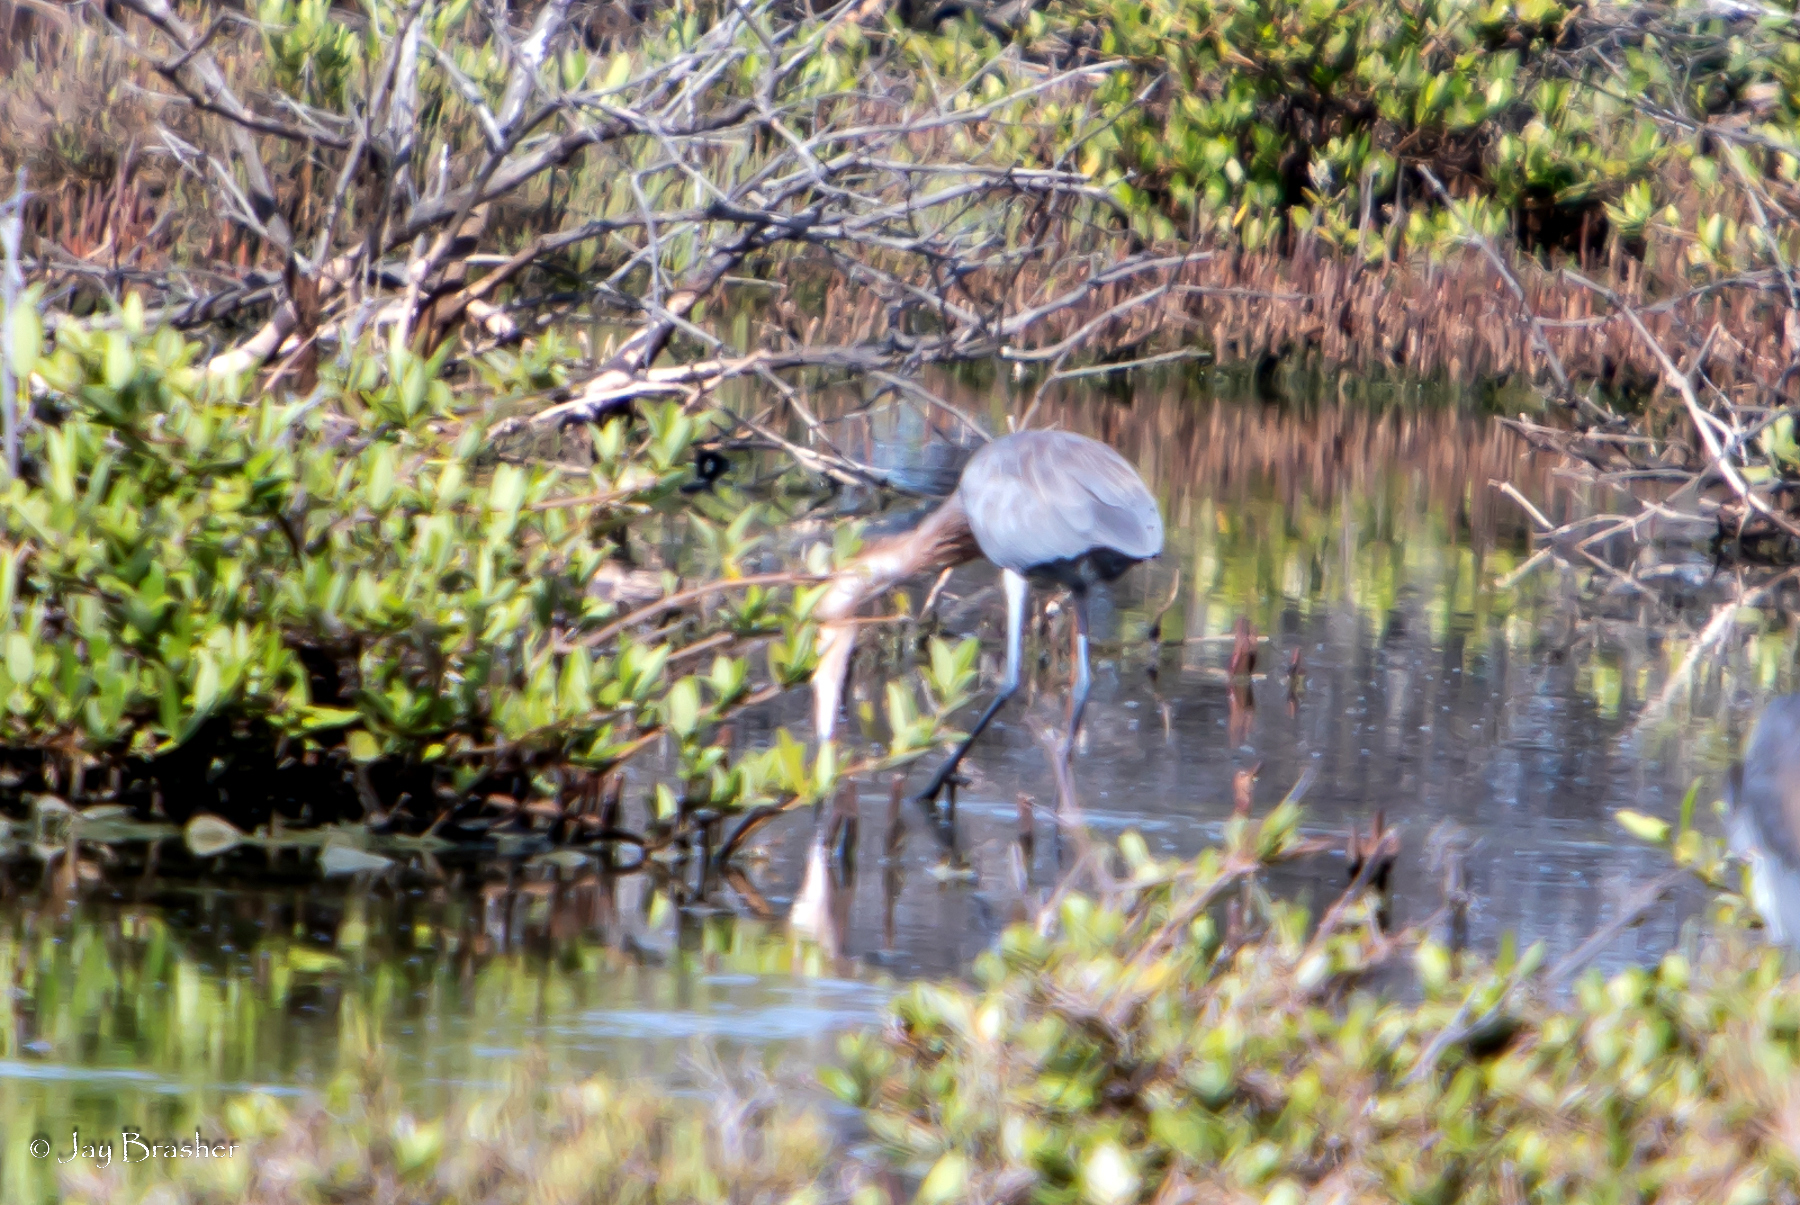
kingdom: Animalia
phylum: Chordata
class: Aves
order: Pelecaniformes
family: Ardeidae
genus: Egretta
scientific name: Egretta rufescens
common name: Reddish egret
